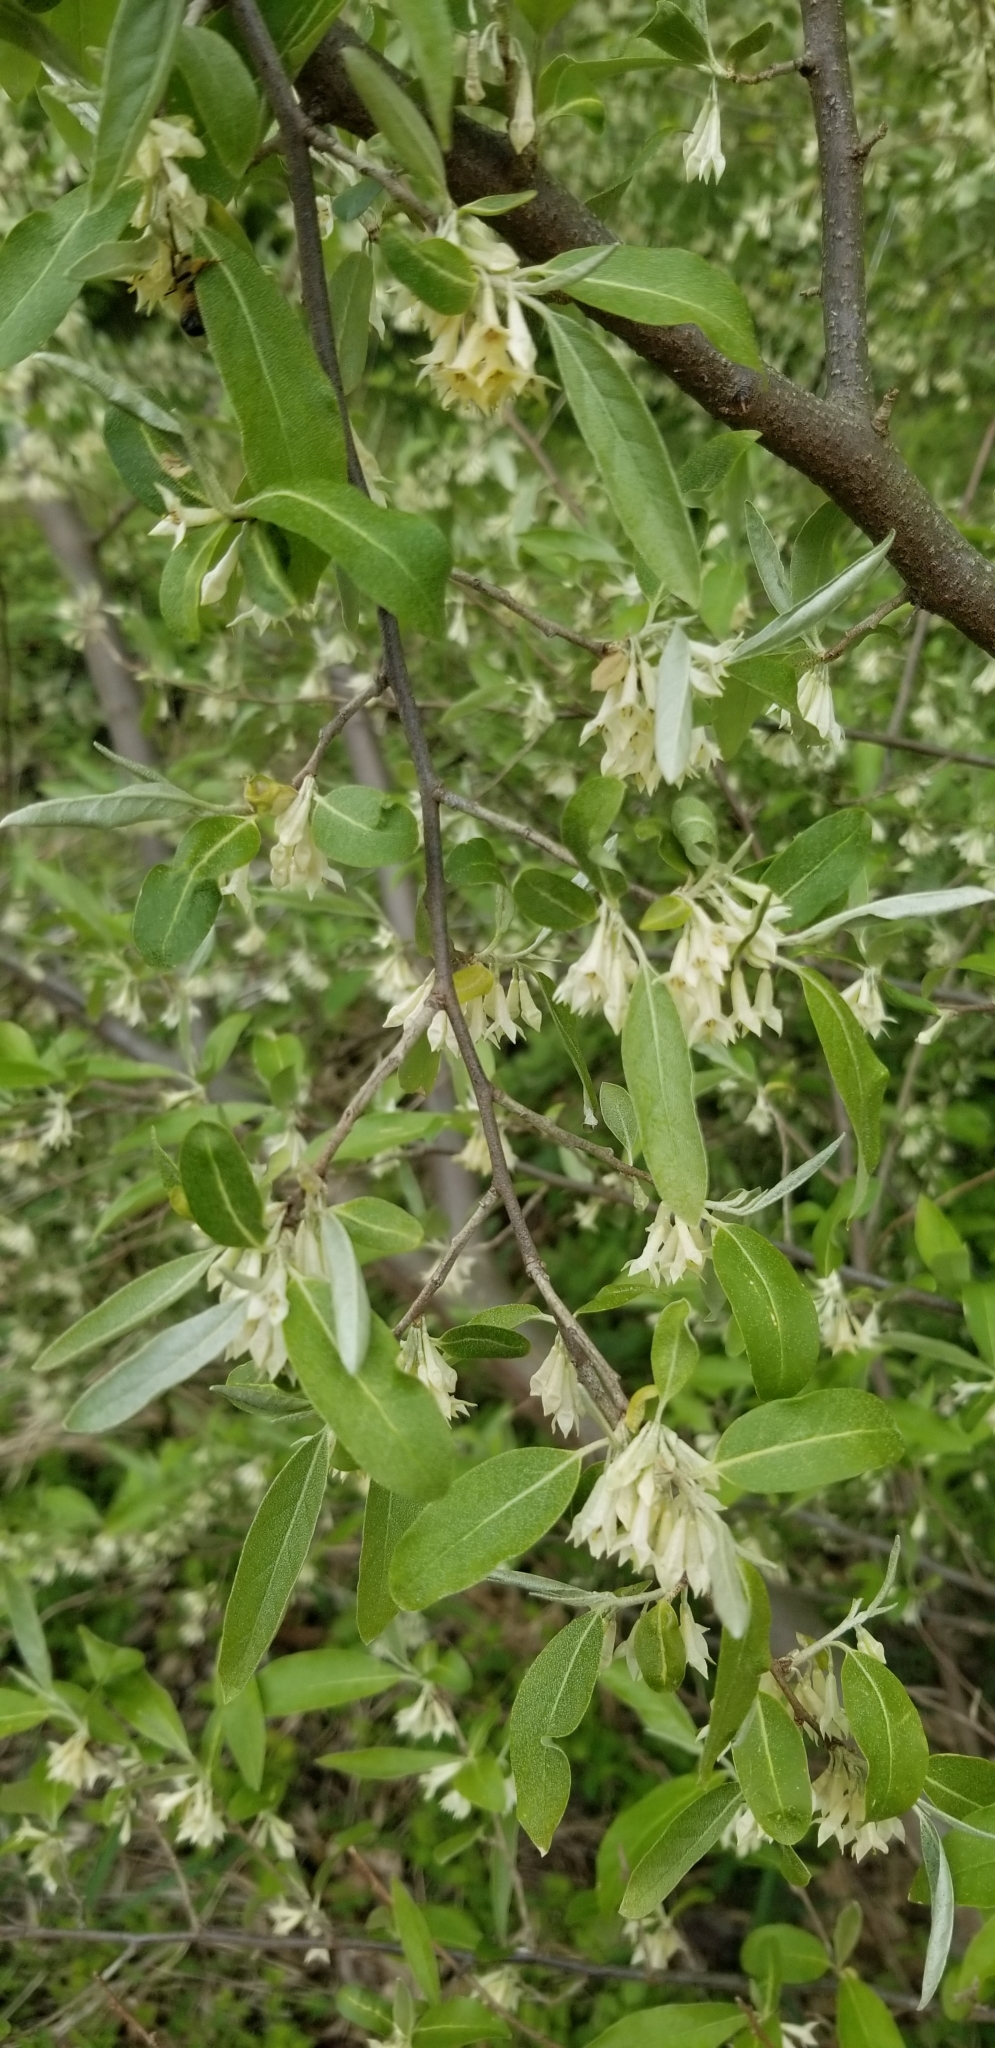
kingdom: Plantae
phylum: Tracheophyta
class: Magnoliopsida
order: Rosales
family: Elaeagnaceae
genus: Elaeagnus
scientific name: Elaeagnus umbellata
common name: Autumn olive
